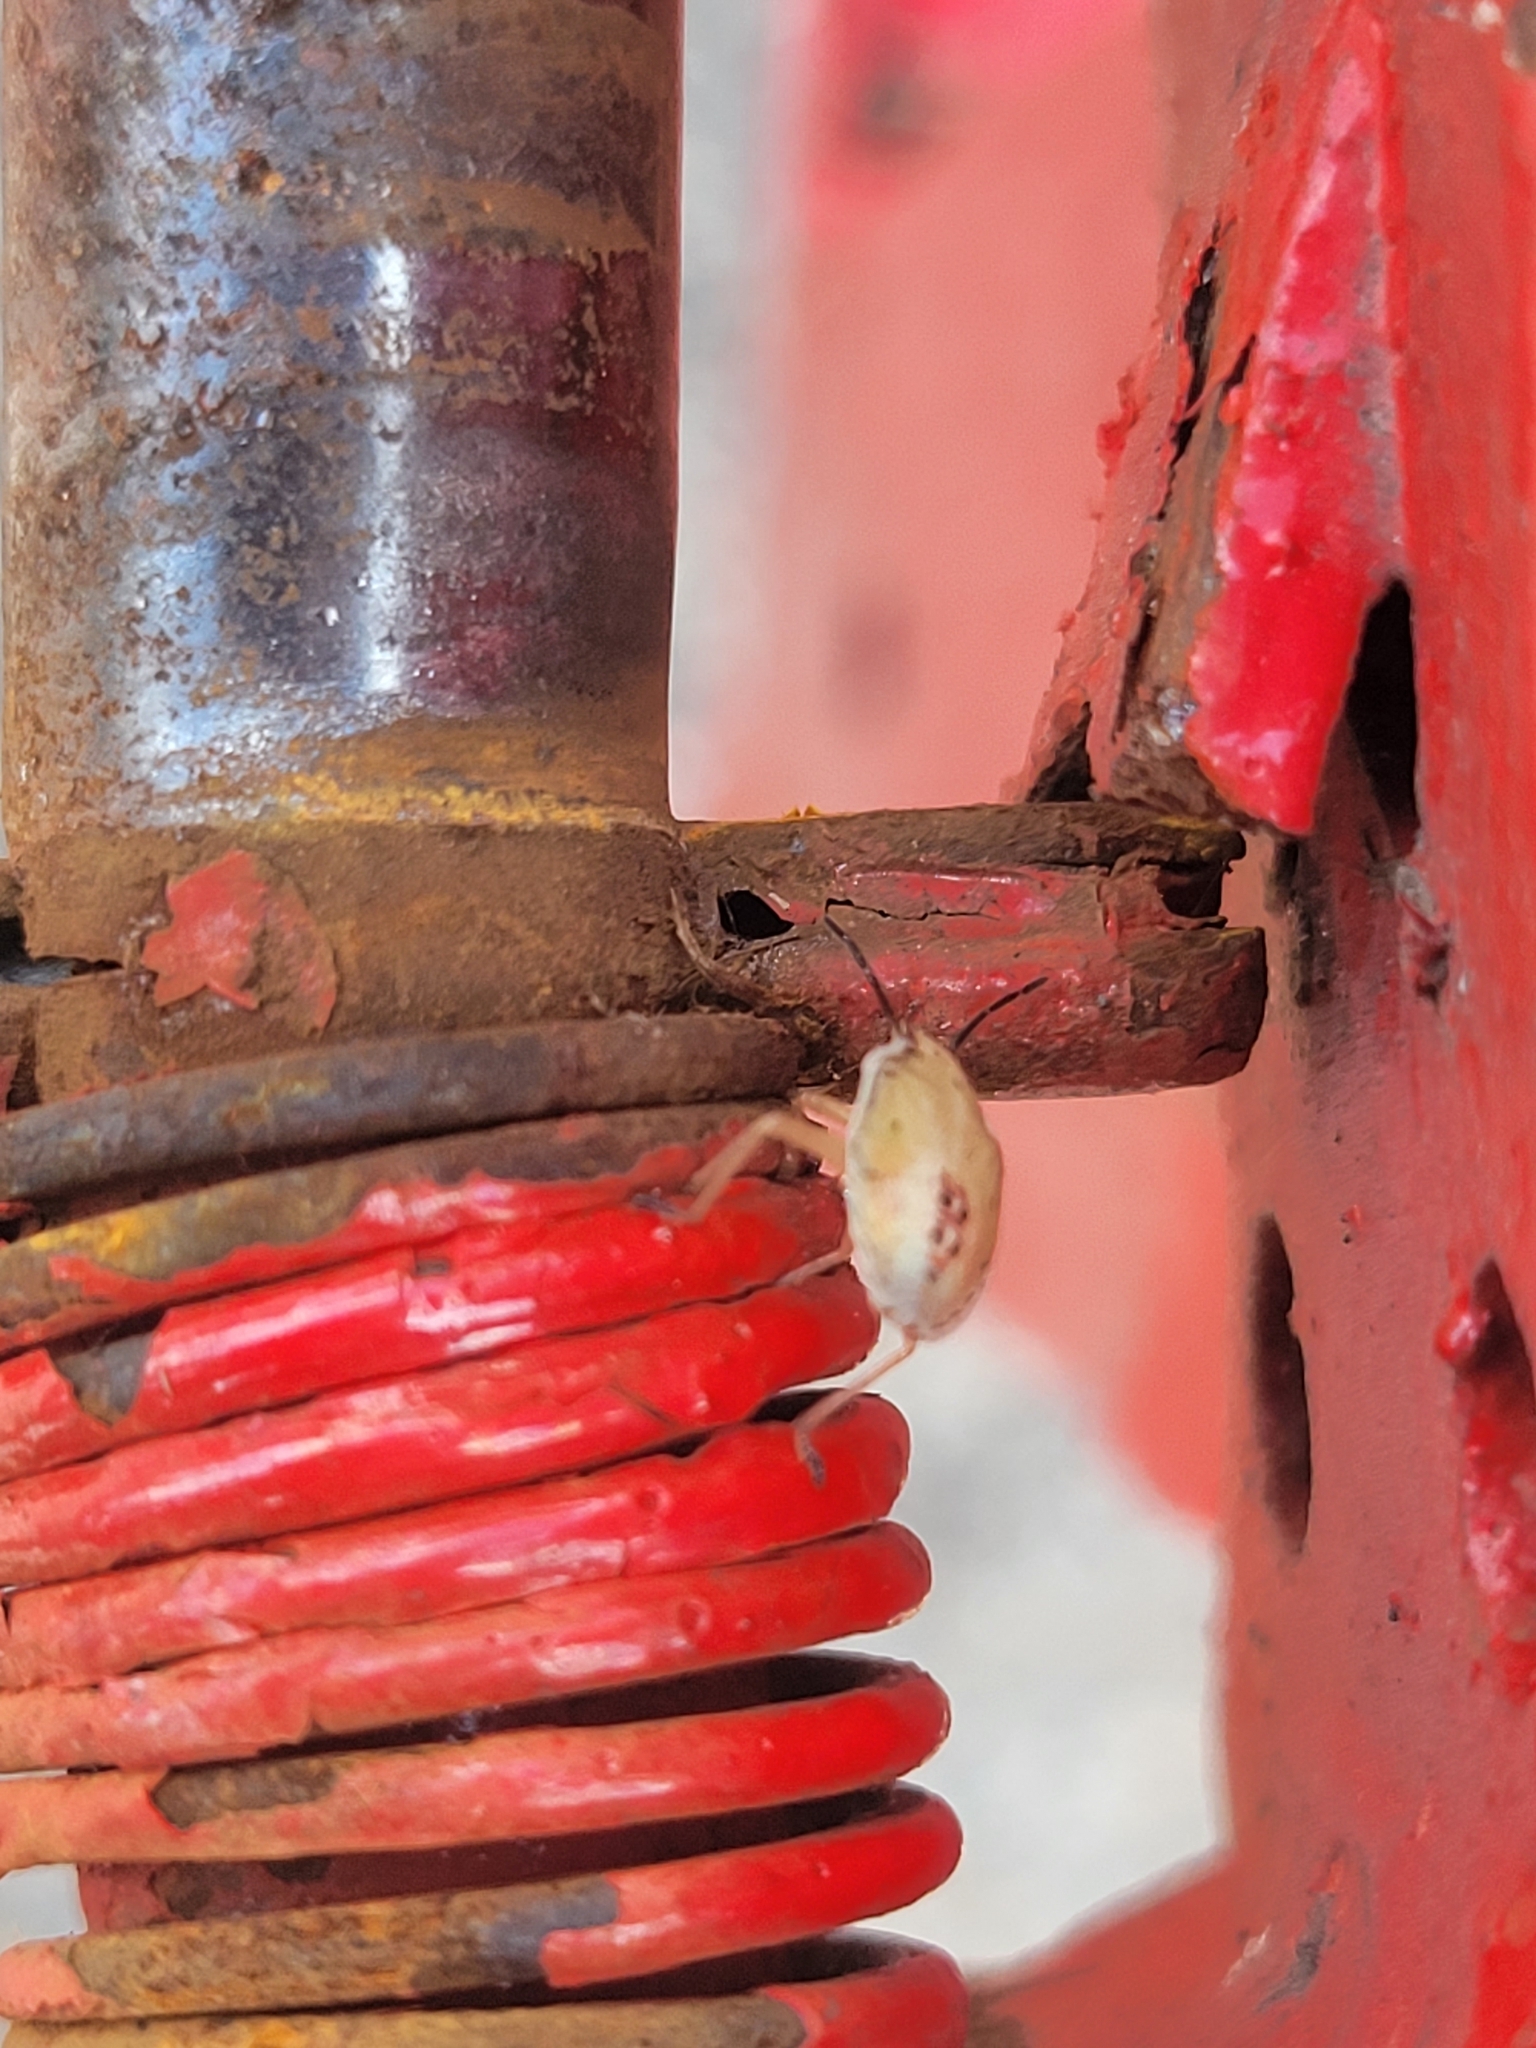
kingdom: Animalia
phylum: Arthropoda
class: Insecta
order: Hemiptera
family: Pentatomidae
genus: Oebalus
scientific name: Oebalus pugnax
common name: Rice stink bug
